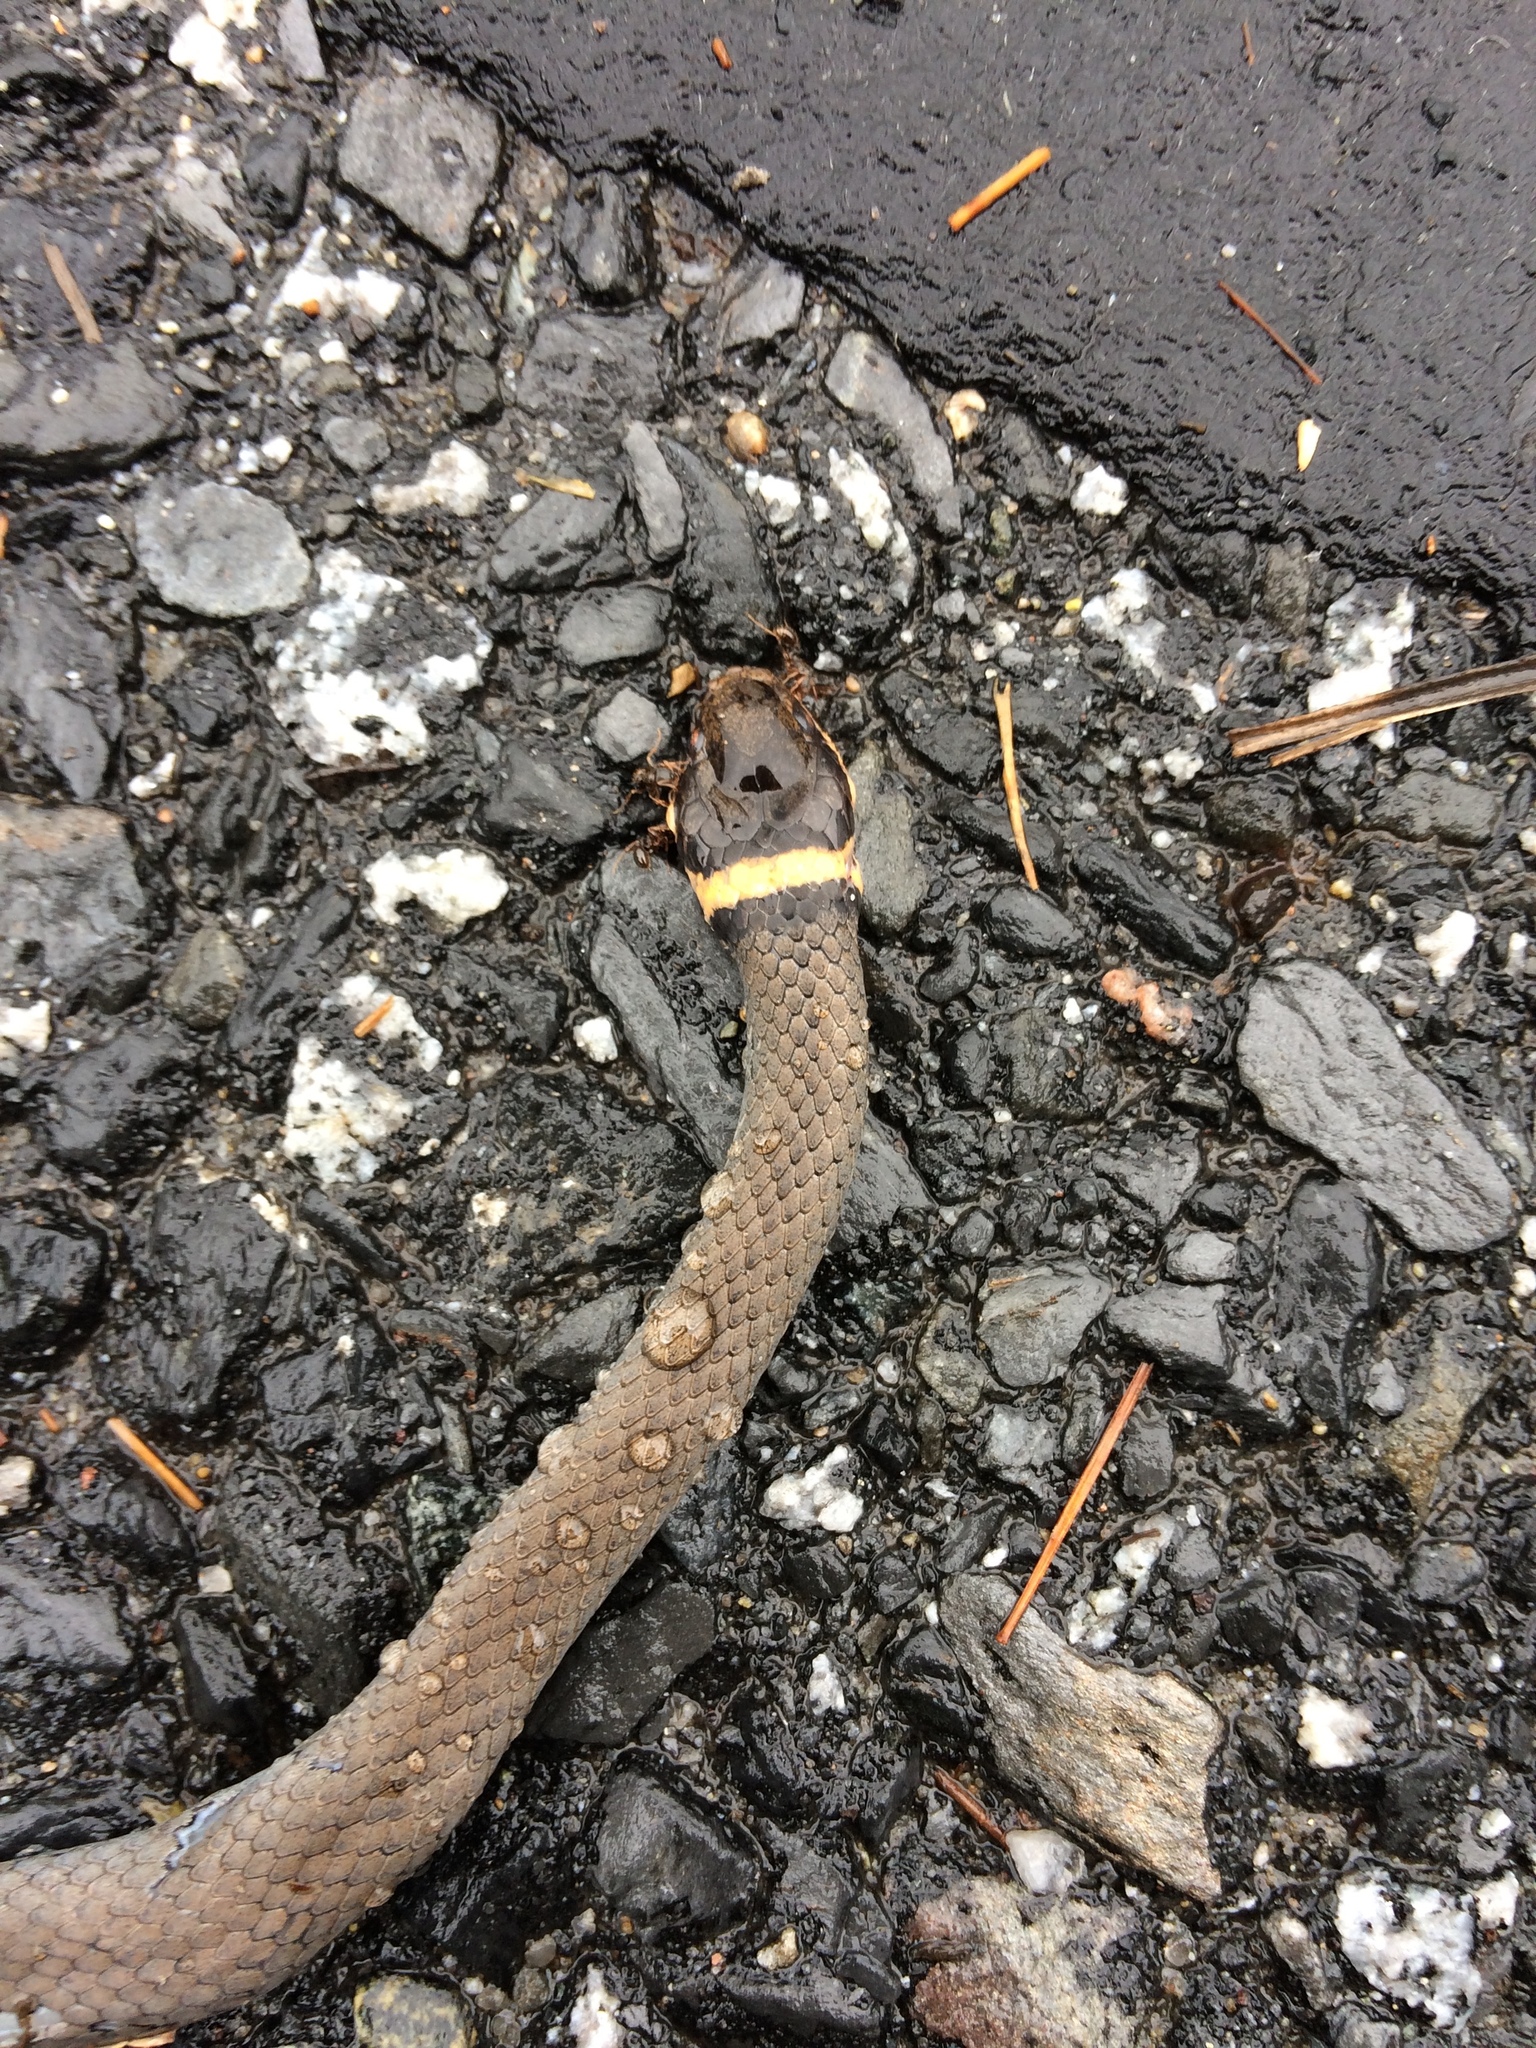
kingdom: Animalia
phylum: Chordata
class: Squamata
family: Colubridae
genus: Diadophis
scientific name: Diadophis punctatus
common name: Ringneck snake
